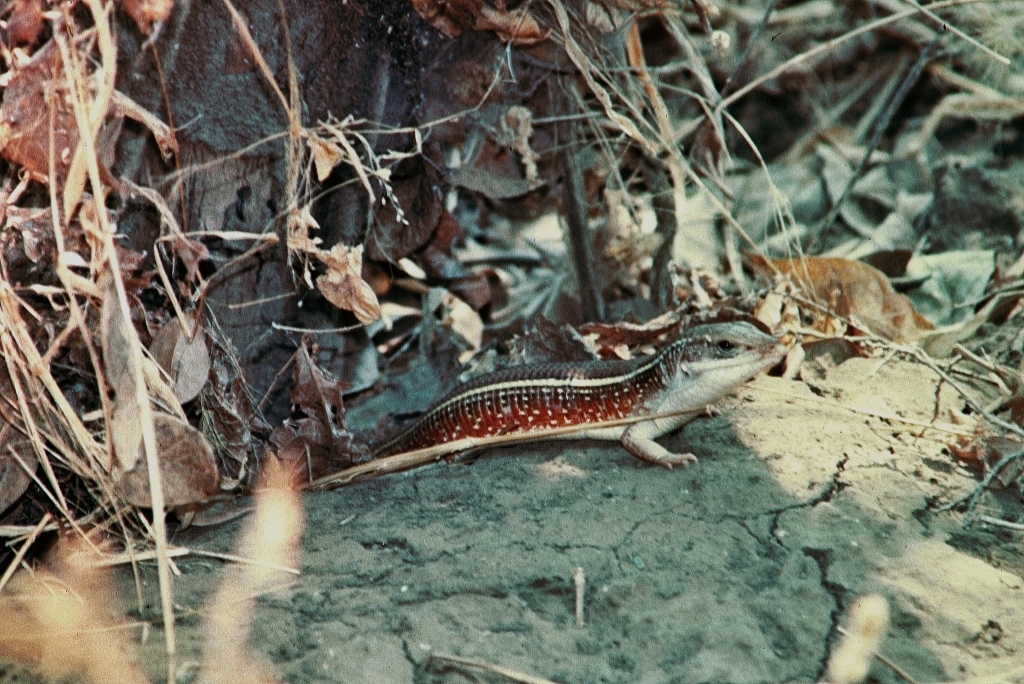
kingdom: Animalia
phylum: Chordata
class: Squamata
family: Gerrhosauridae
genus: Gerrhosaurus
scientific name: Gerrhosaurus flavigularis
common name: Yellow-throated plated lizard
